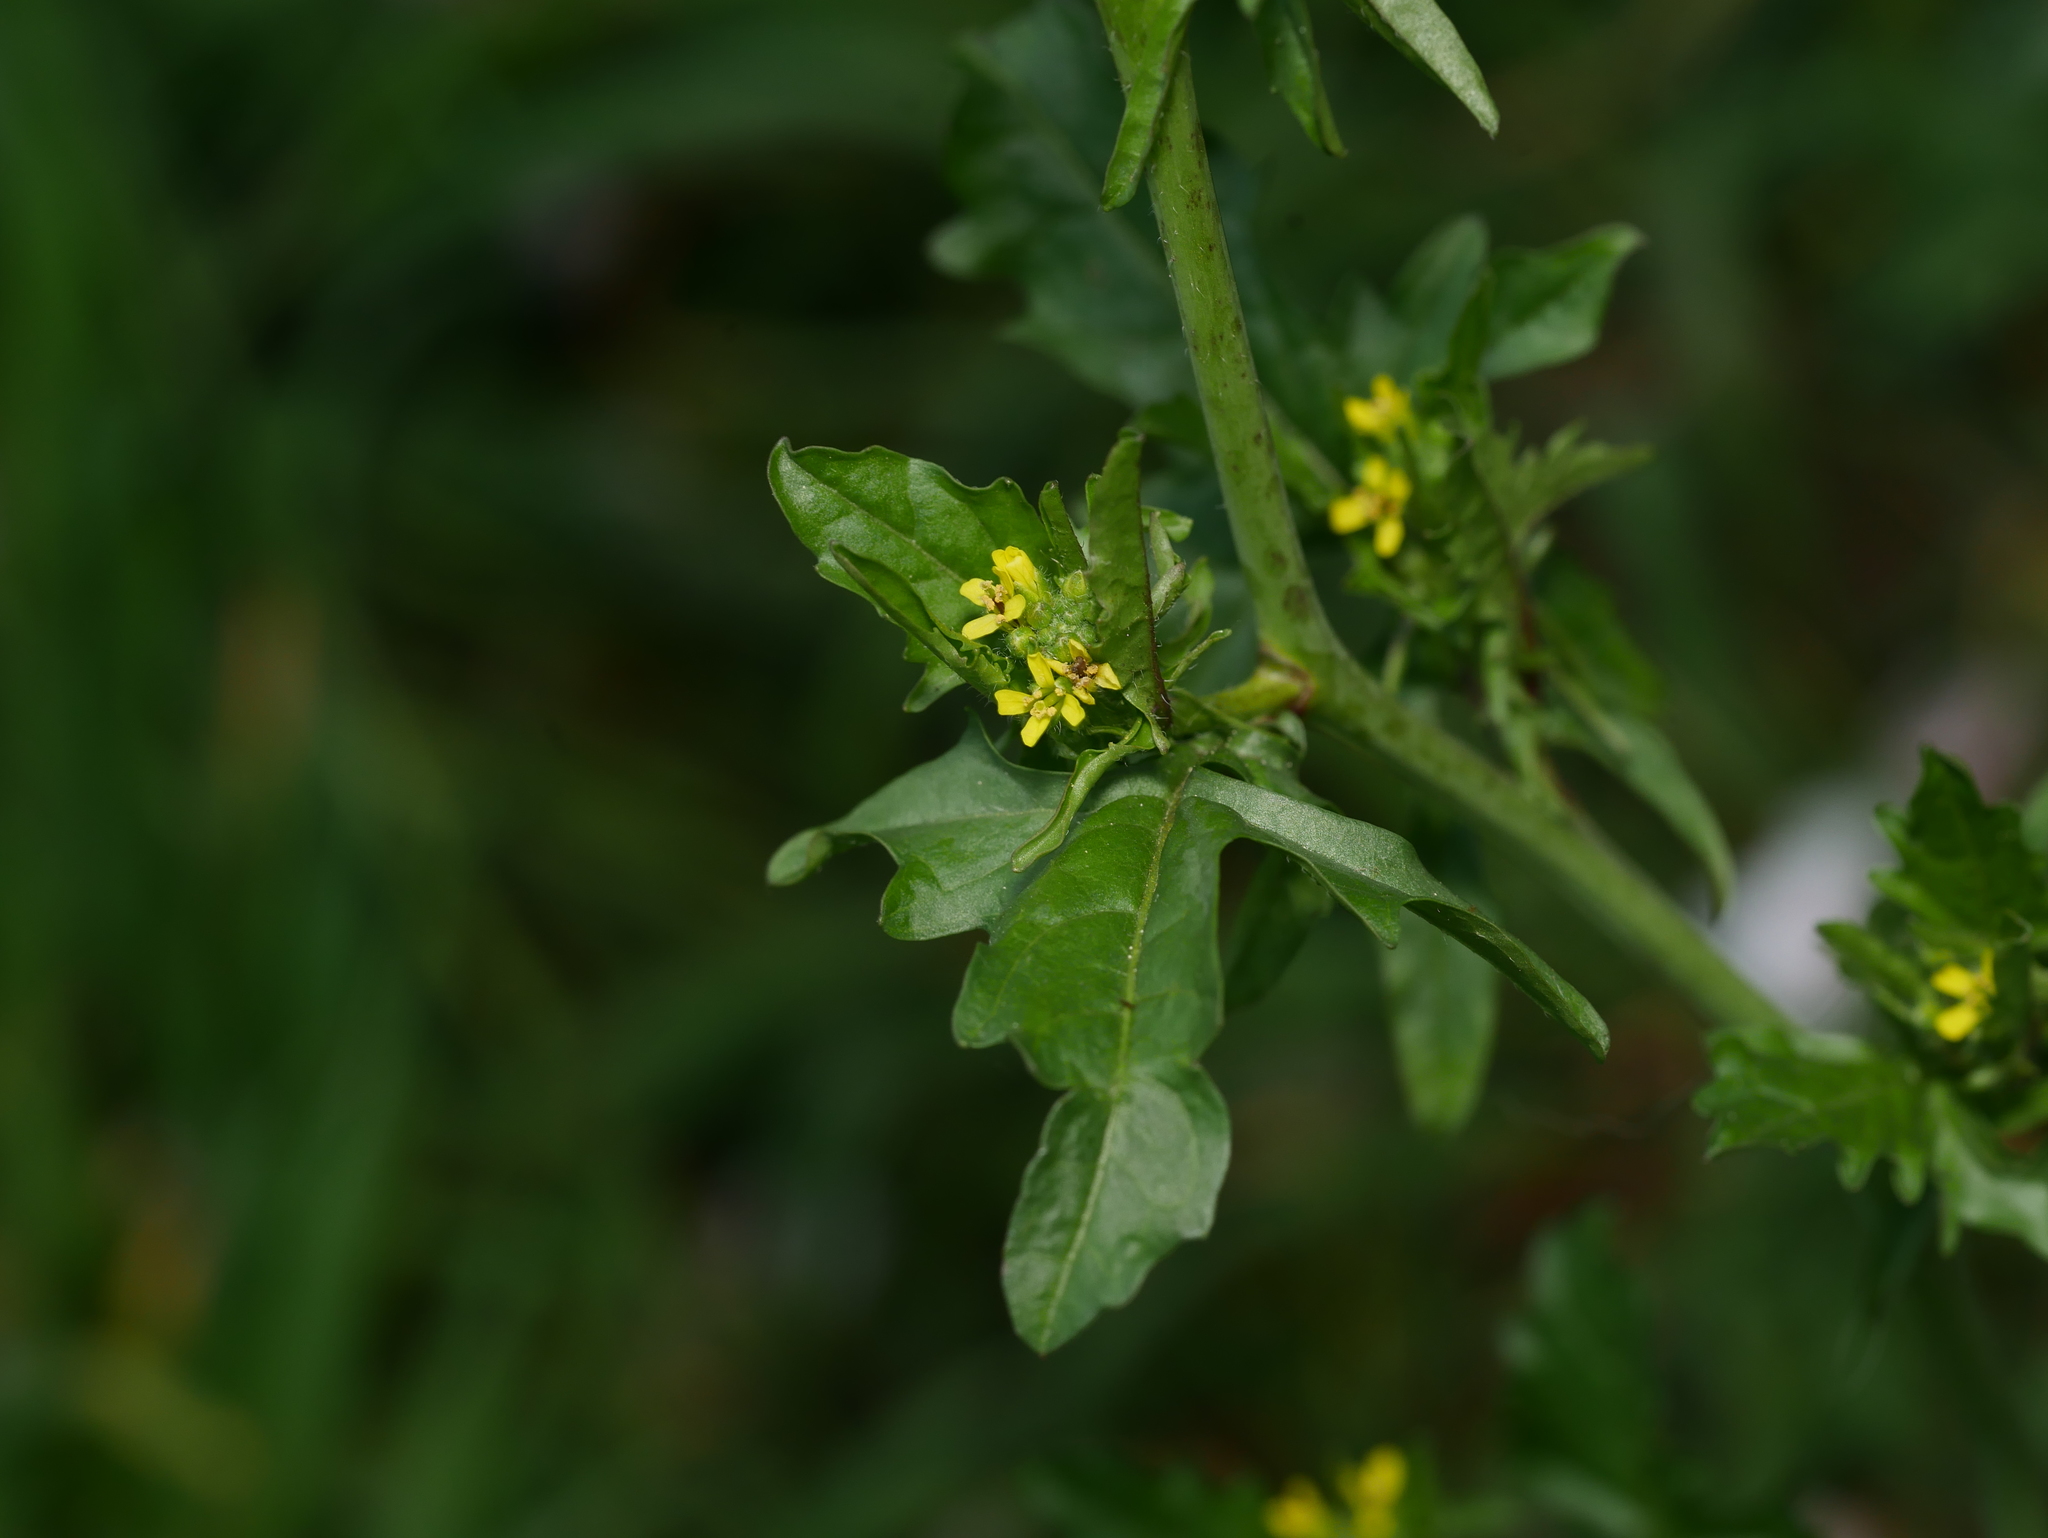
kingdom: Plantae
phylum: Tracheophyta
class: Magnoliopsida
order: Brassicales
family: Brassicaceae
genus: Sisymbrium
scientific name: Sisymbrium officinale
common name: Hedge mustard
